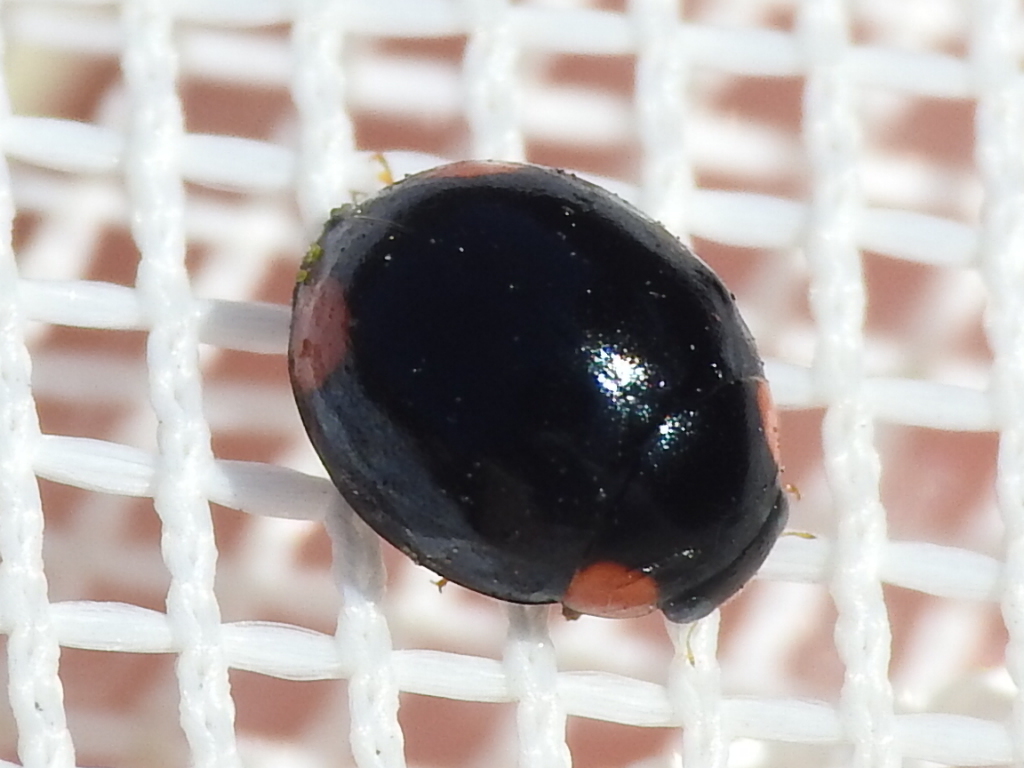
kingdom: Animalia
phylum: Arthropoda
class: Insecta
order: Coleoptera
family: Coccinellidae
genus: Hyperaspis
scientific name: Hyperaspis bigeminata
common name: Bigeminate sigil lady beetle
